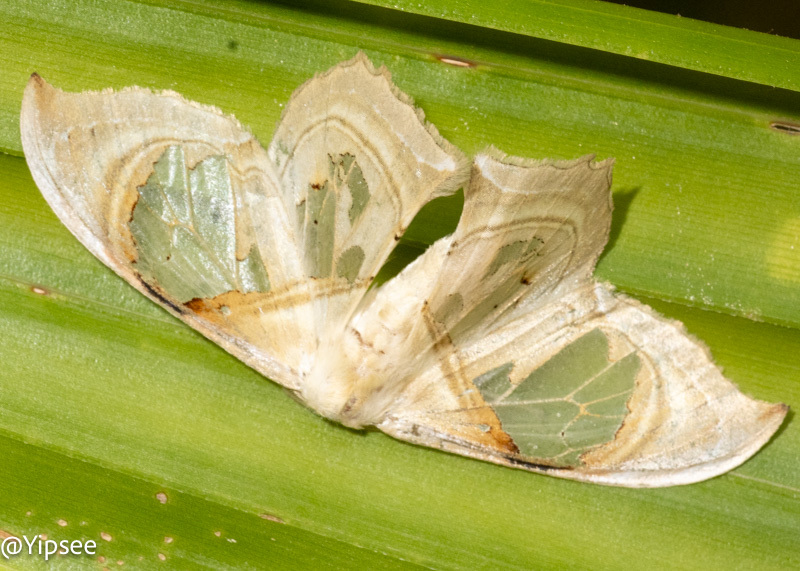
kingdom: Animalia
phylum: Arthropoda
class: Insecta
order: Lepidoptera
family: Drepanidae
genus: Macrauzata
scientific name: Macrauzata melanapex
